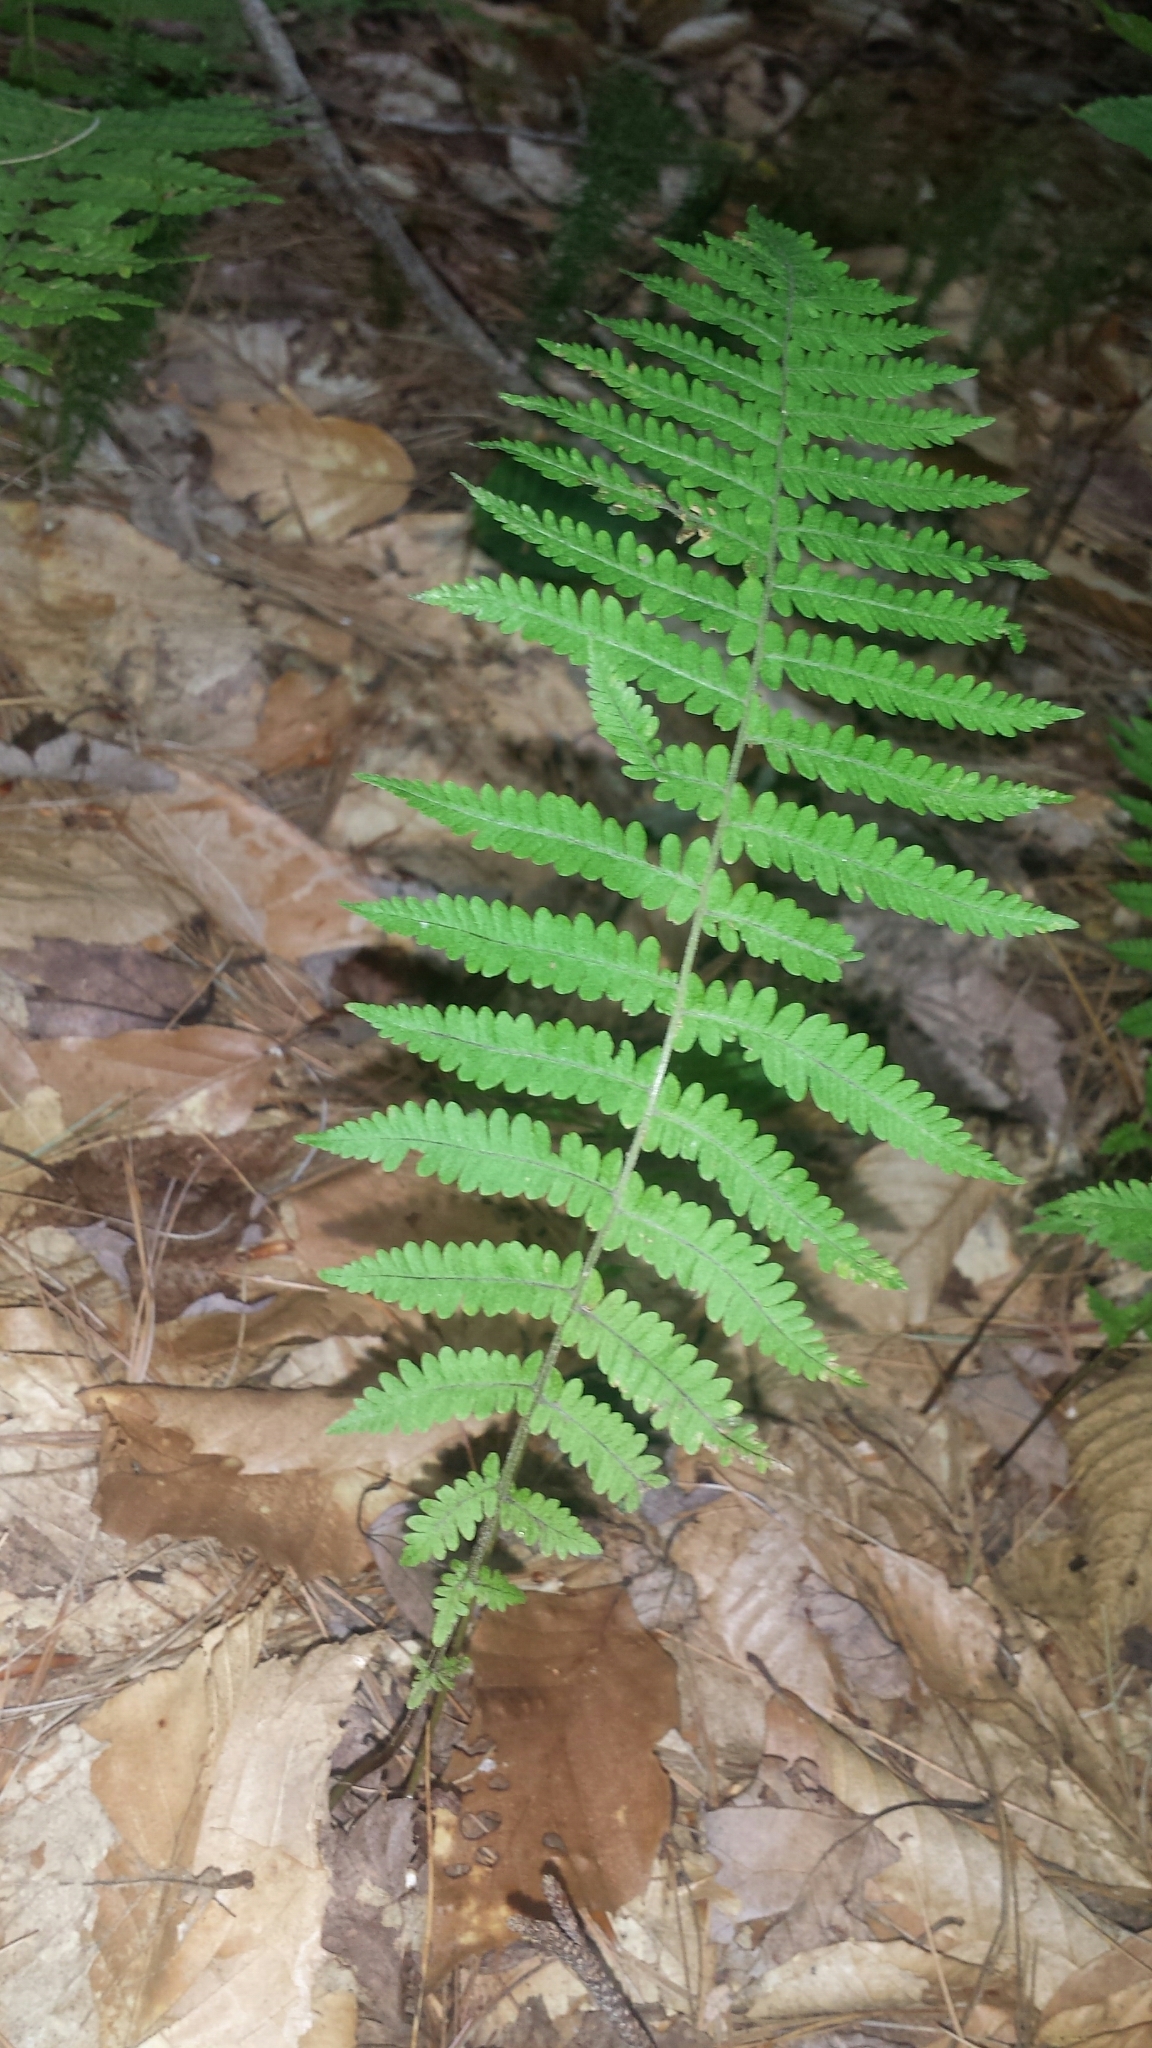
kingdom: Plantae
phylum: Tracheophyta
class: Polypodiopsida
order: Polypodiales
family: Thelypteridaceae
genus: Amauropelta
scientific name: Amauropelta noveboracensis
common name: New york fern
